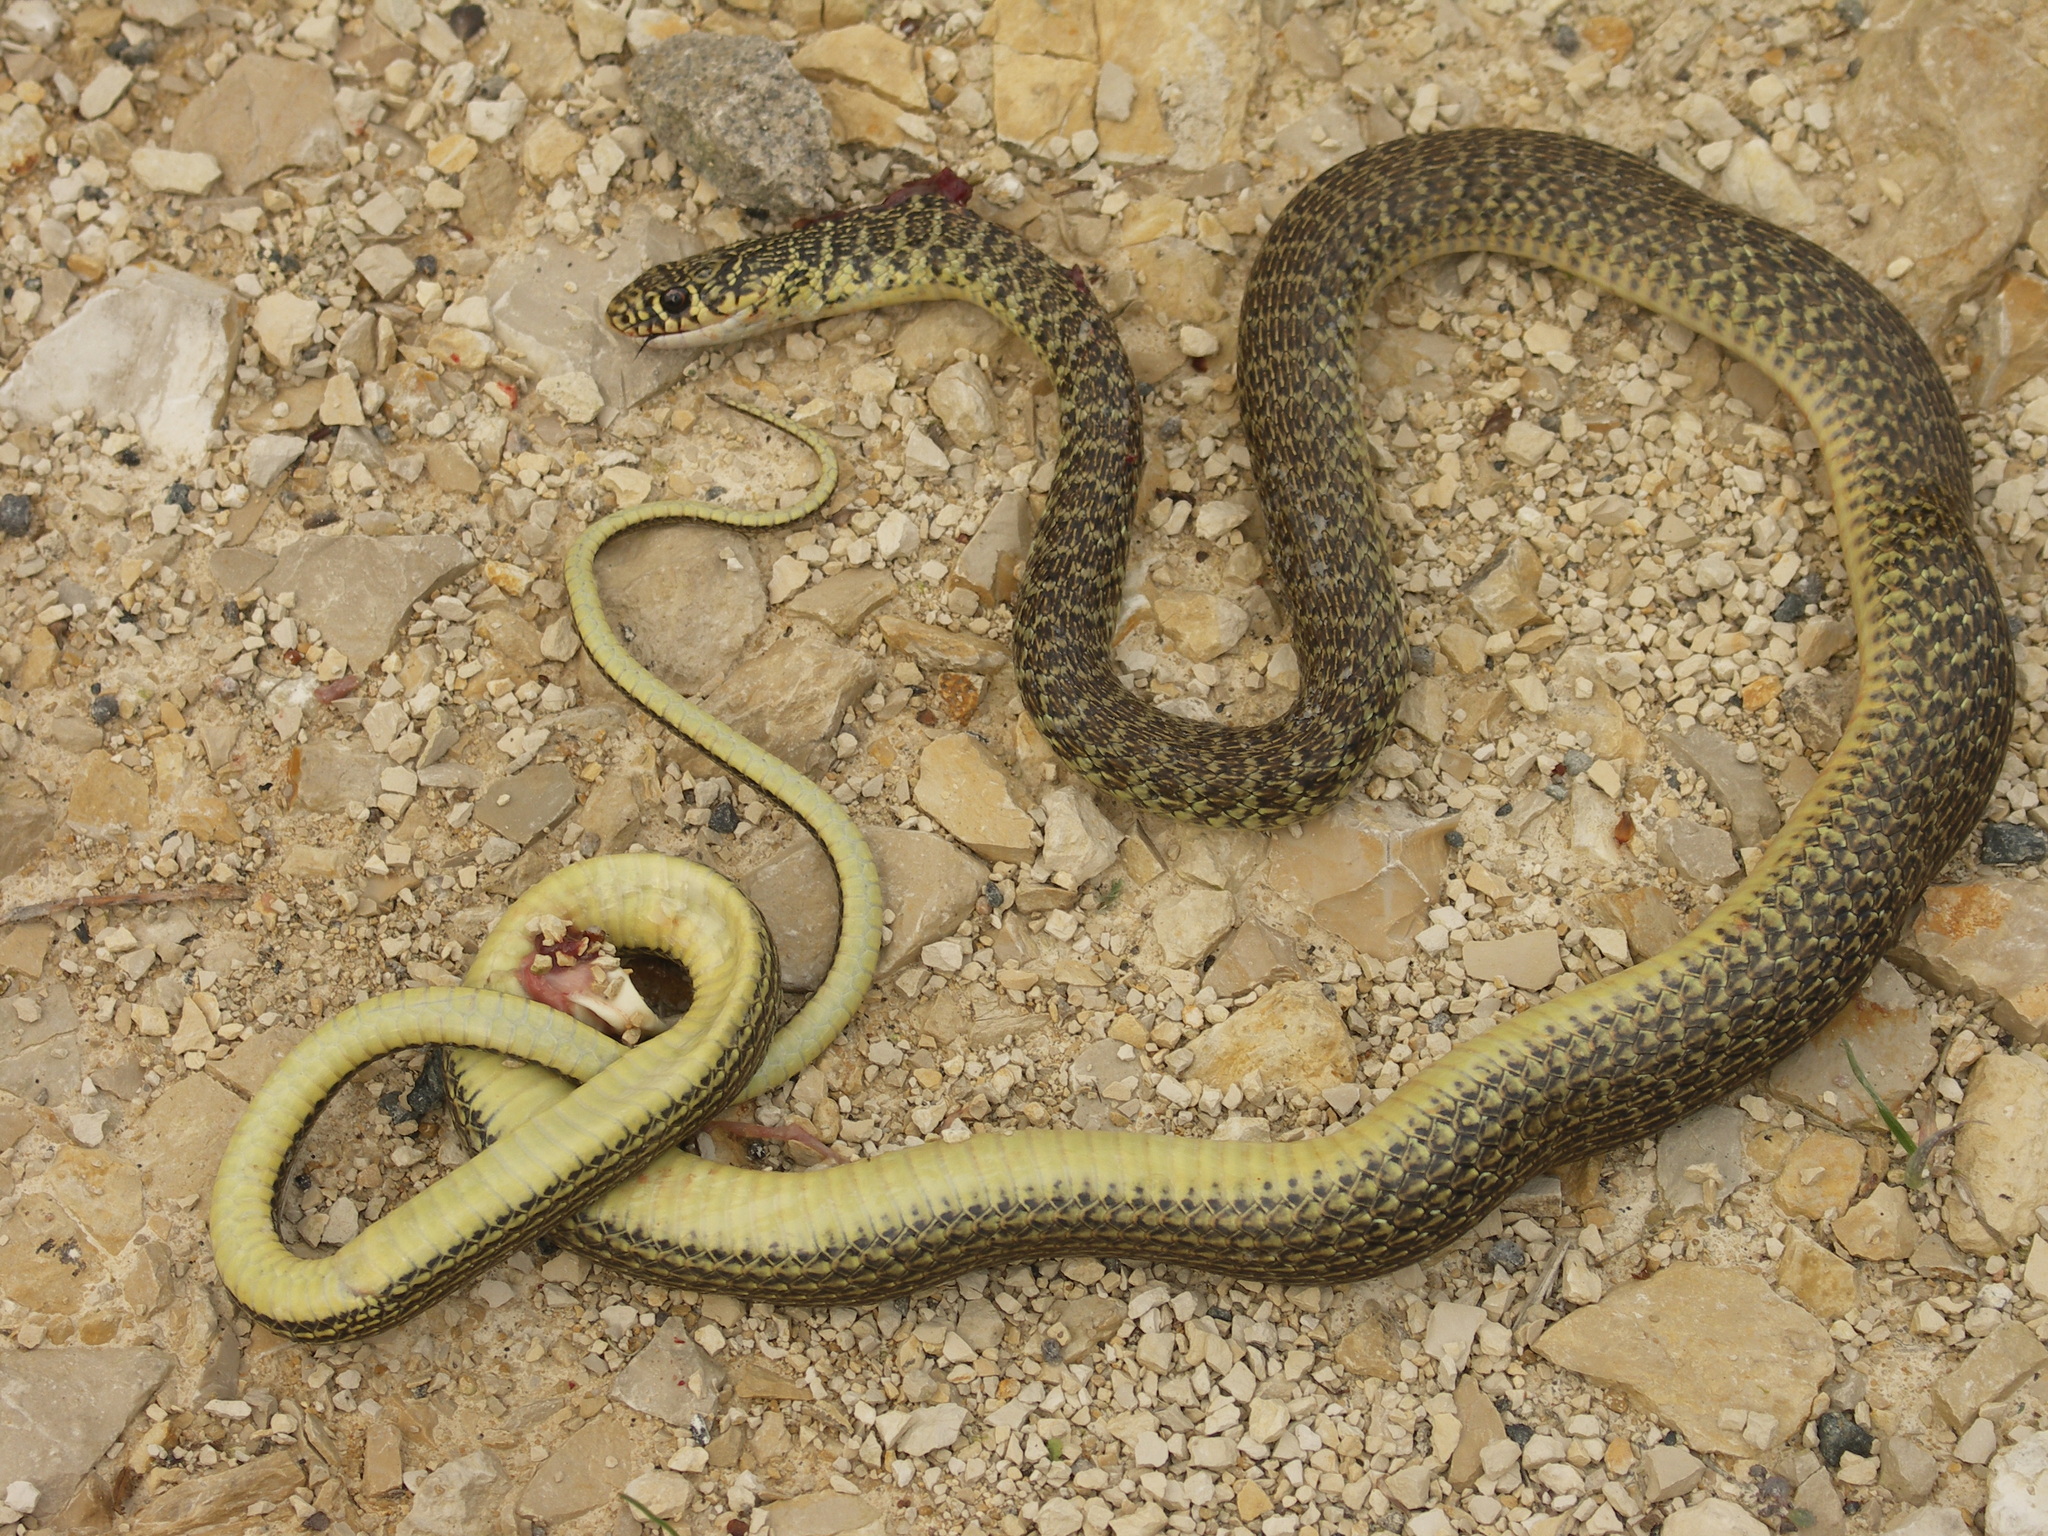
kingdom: Animalia
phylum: Chordata
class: Squamata
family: Colubridae
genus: Hierophis
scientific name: Hierophis viridiflavus
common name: Green whip snake
